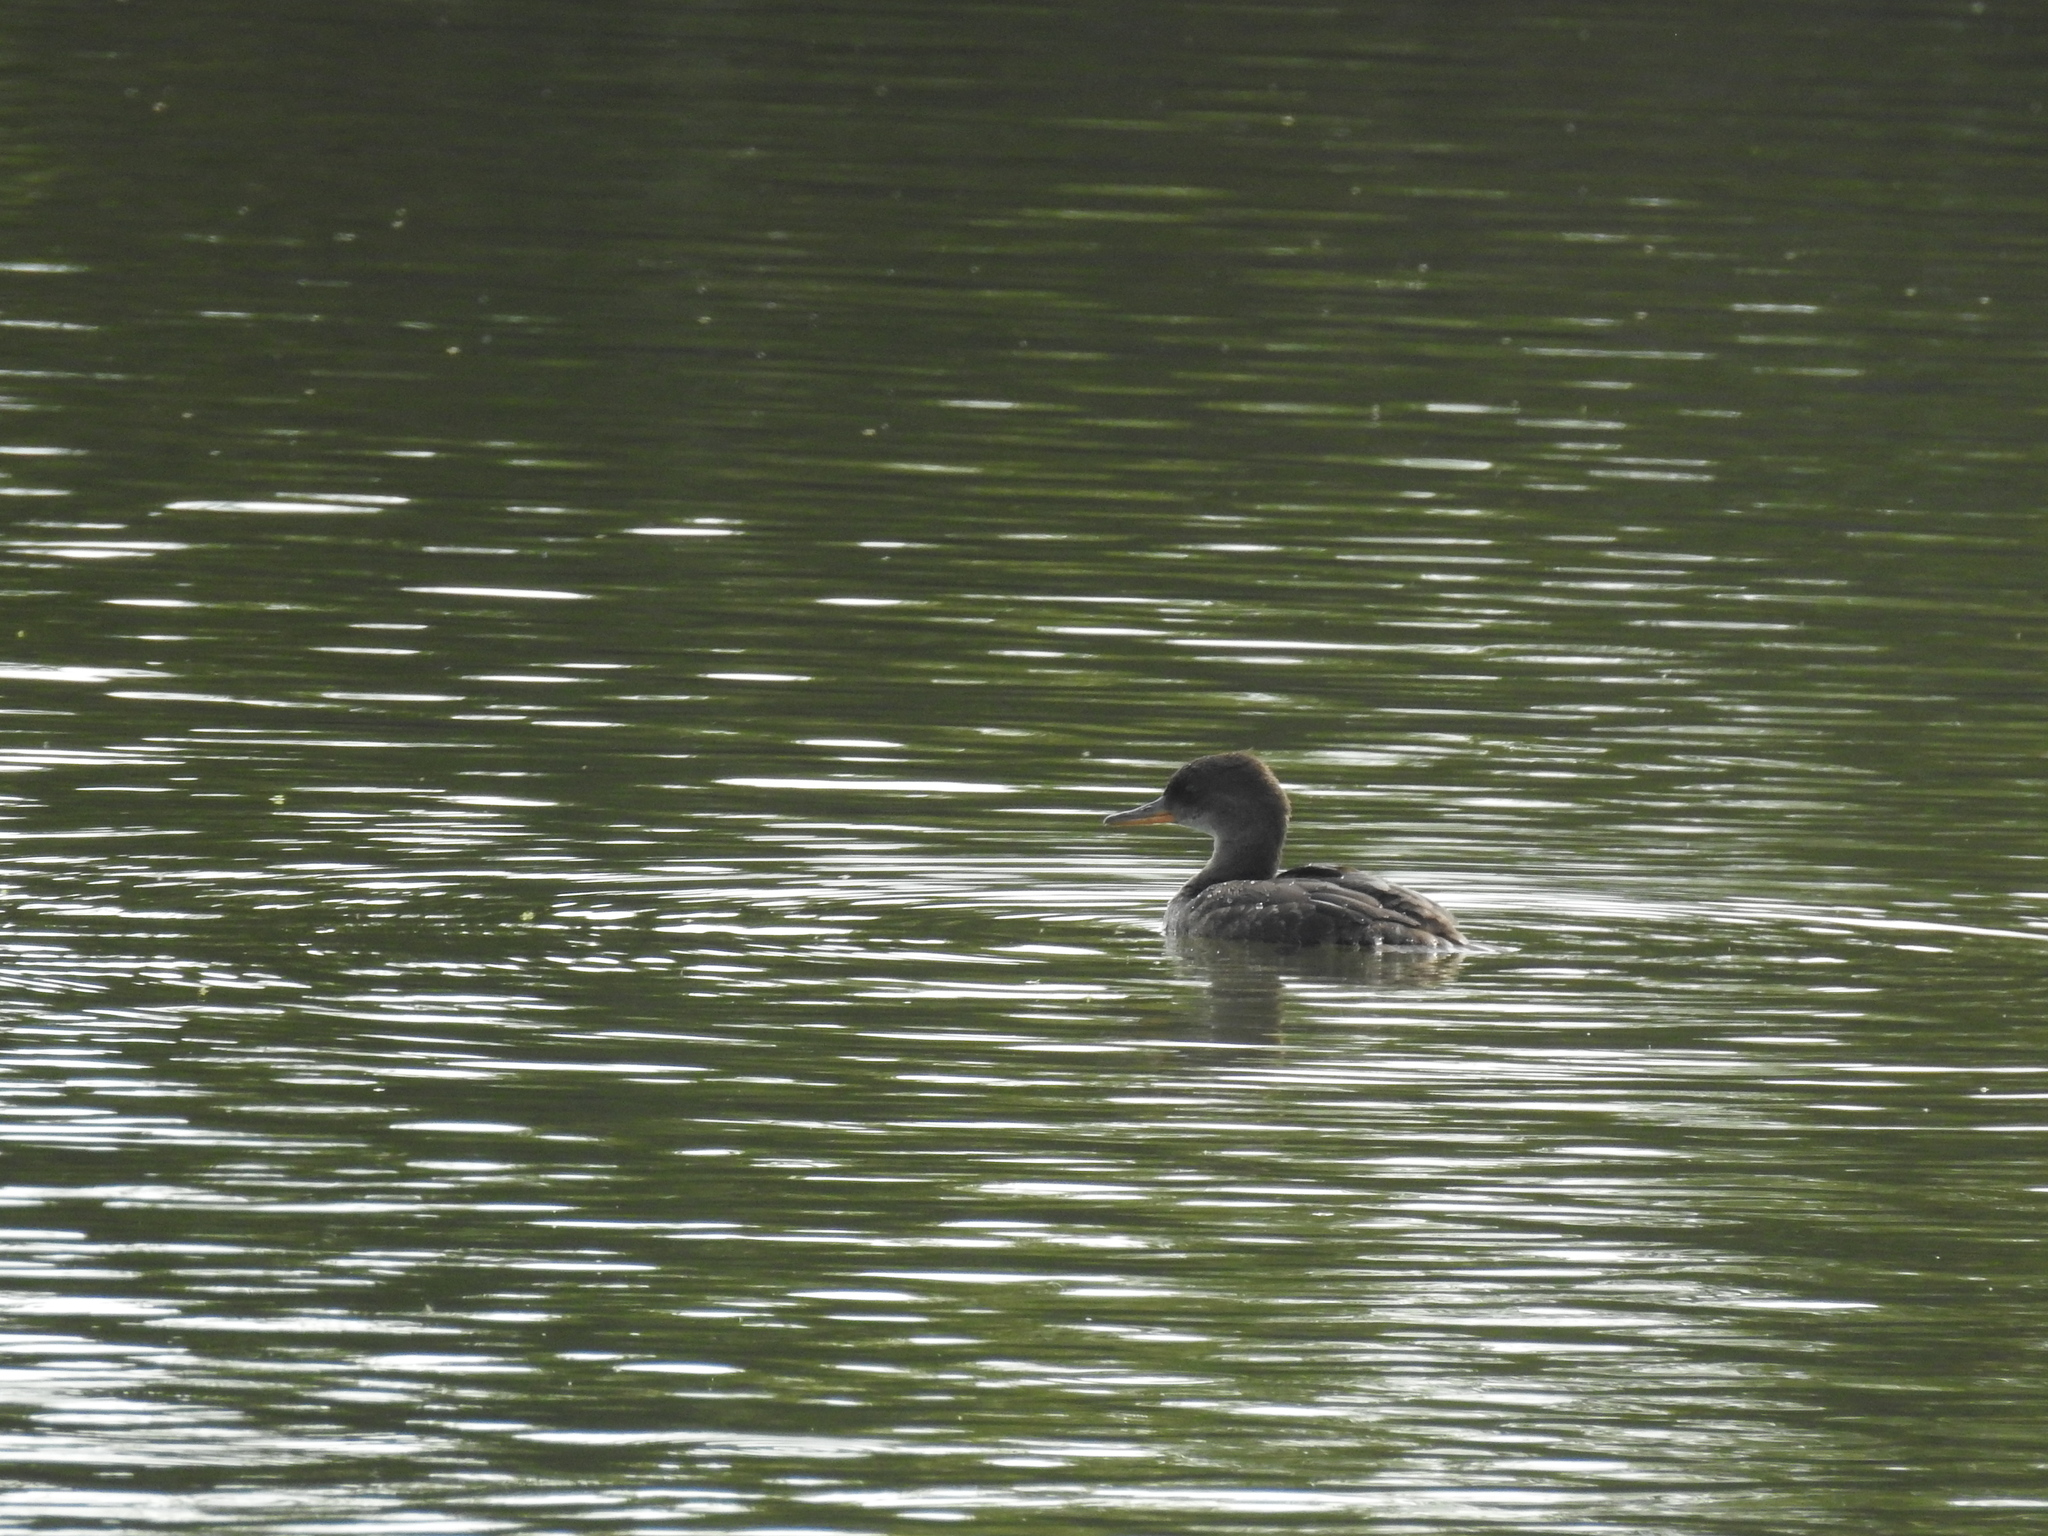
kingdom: Animalia
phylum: Chordata
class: Aves
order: Anseriformes
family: Anatidae
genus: Lophodytes
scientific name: Lophodytes cucullatus
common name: Hooded merganser
